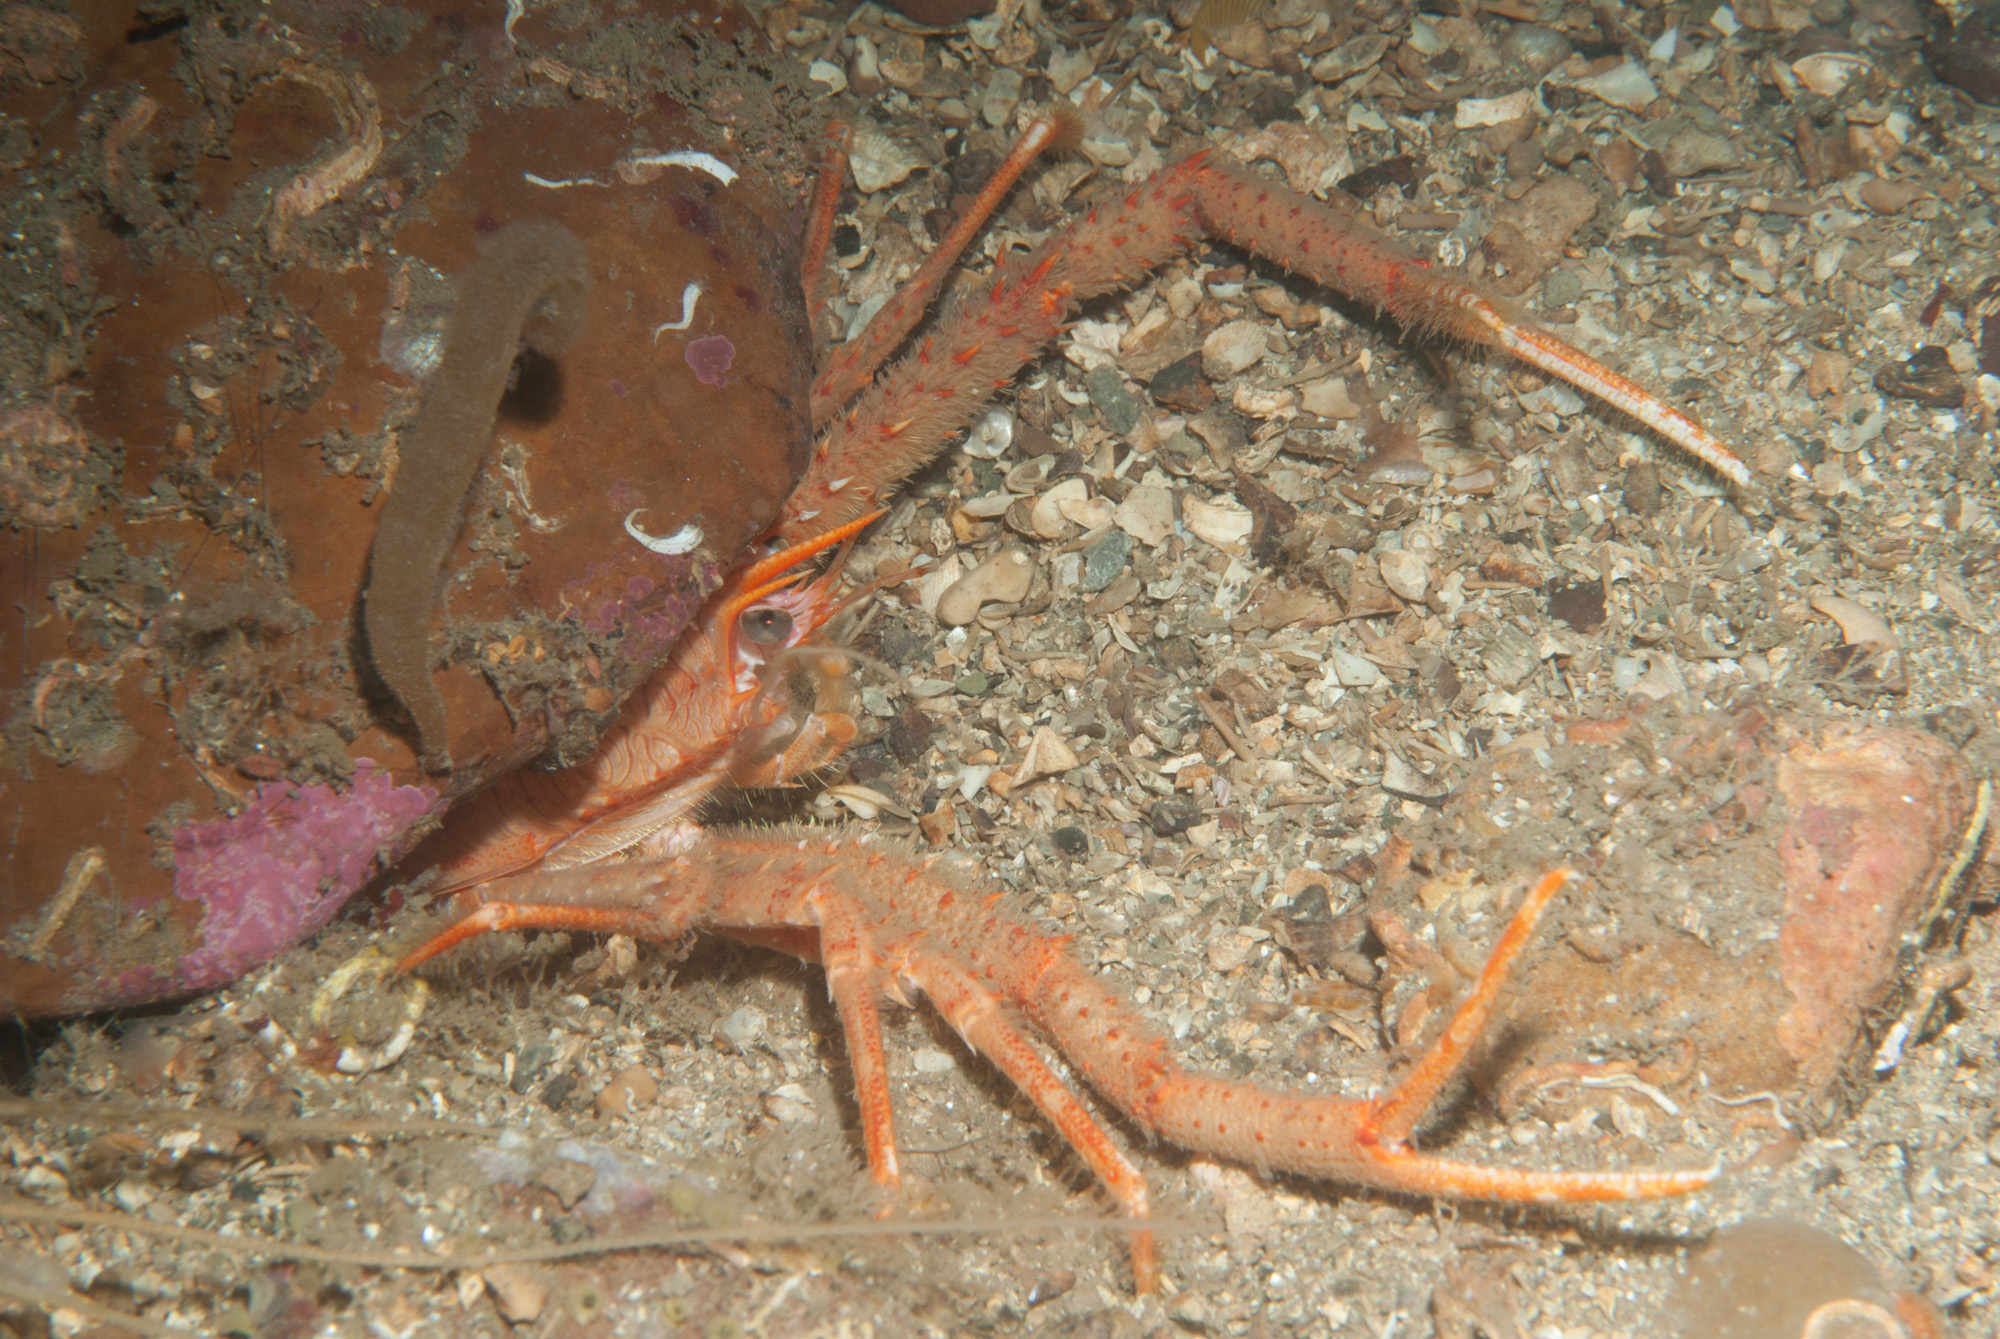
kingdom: Animalia
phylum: Arthropoda
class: Malacostraca
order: Decapoda
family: Munididae
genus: Munida
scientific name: Munida rugosa
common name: Rugose squat lobster
